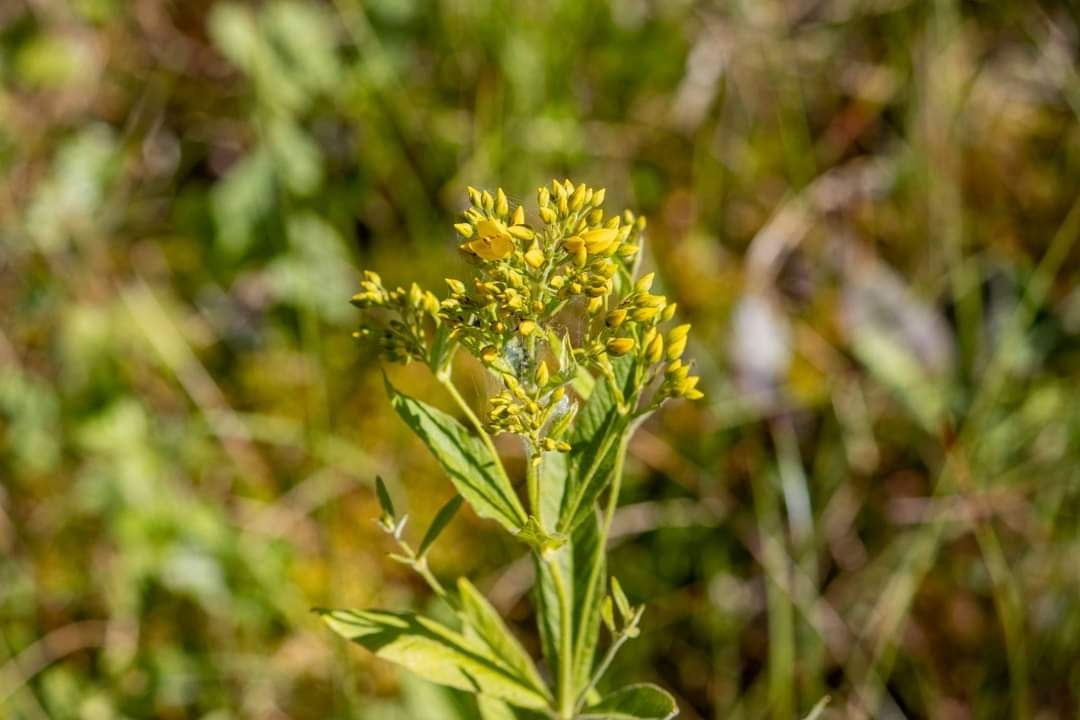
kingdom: Plantae
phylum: Tracheophyta
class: Magnoliopsida
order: Ericales
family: Primulaceae
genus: Lysimachia
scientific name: Lysimachia vulgaris
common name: Yellow loosestrife
